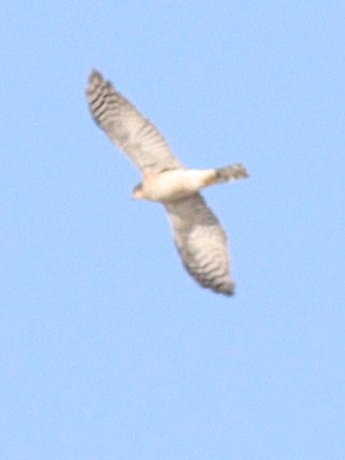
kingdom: Animalia
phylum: Chordata
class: Aves
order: Accipitriformes
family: Accipitridae
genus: Accipiter
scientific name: Accipiter nisus
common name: Eurasian sparrowhawk
